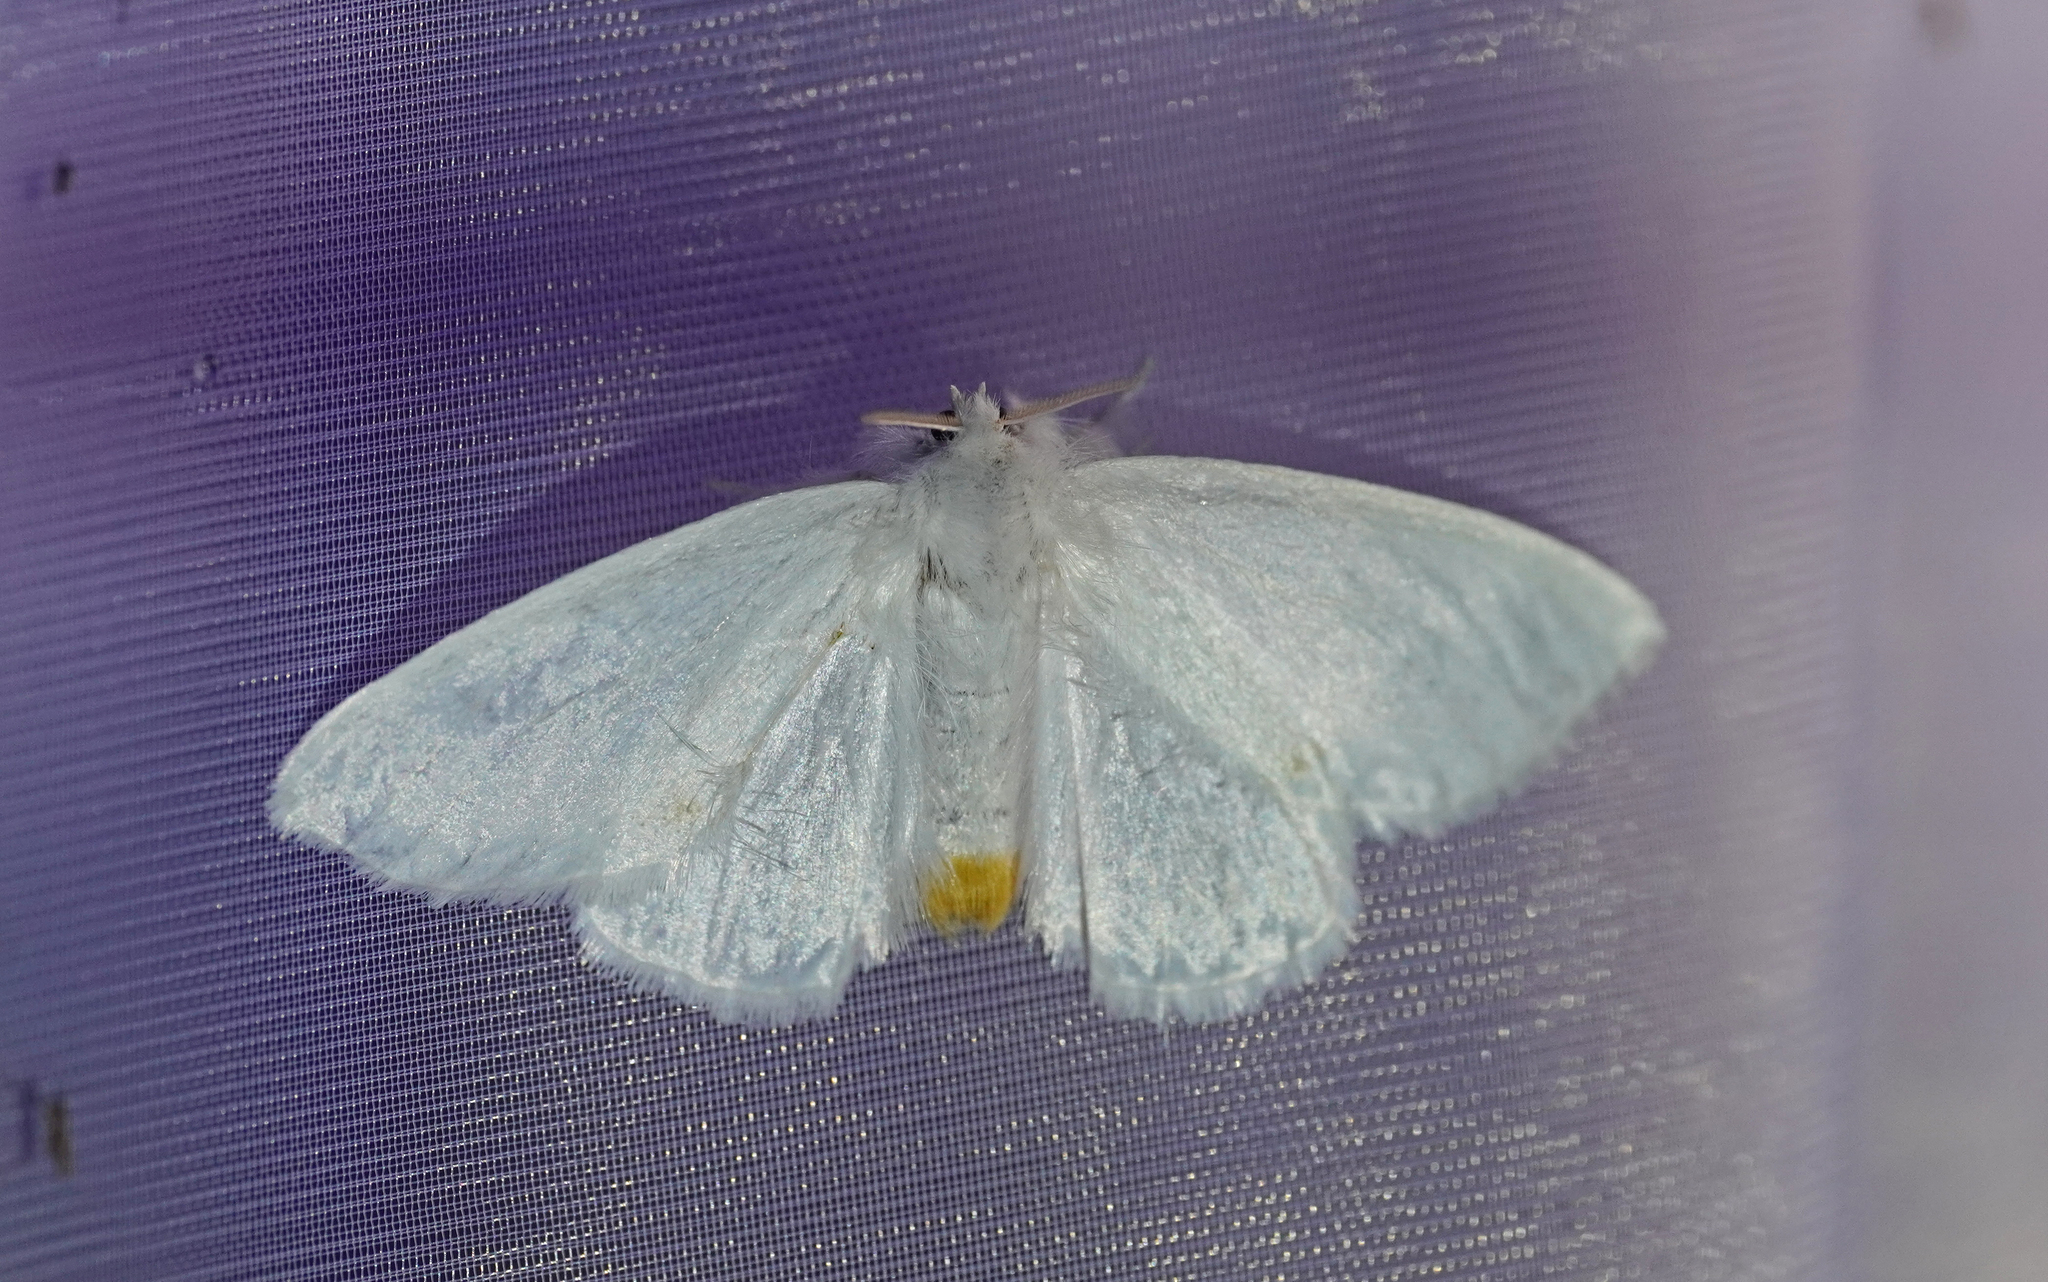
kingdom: Animalia
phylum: Arthropoda
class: Insecta
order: Lepidoptera
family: Erebidae
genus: Sphrageidus
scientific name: Sphrageidus similis
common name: Yellow-tail
